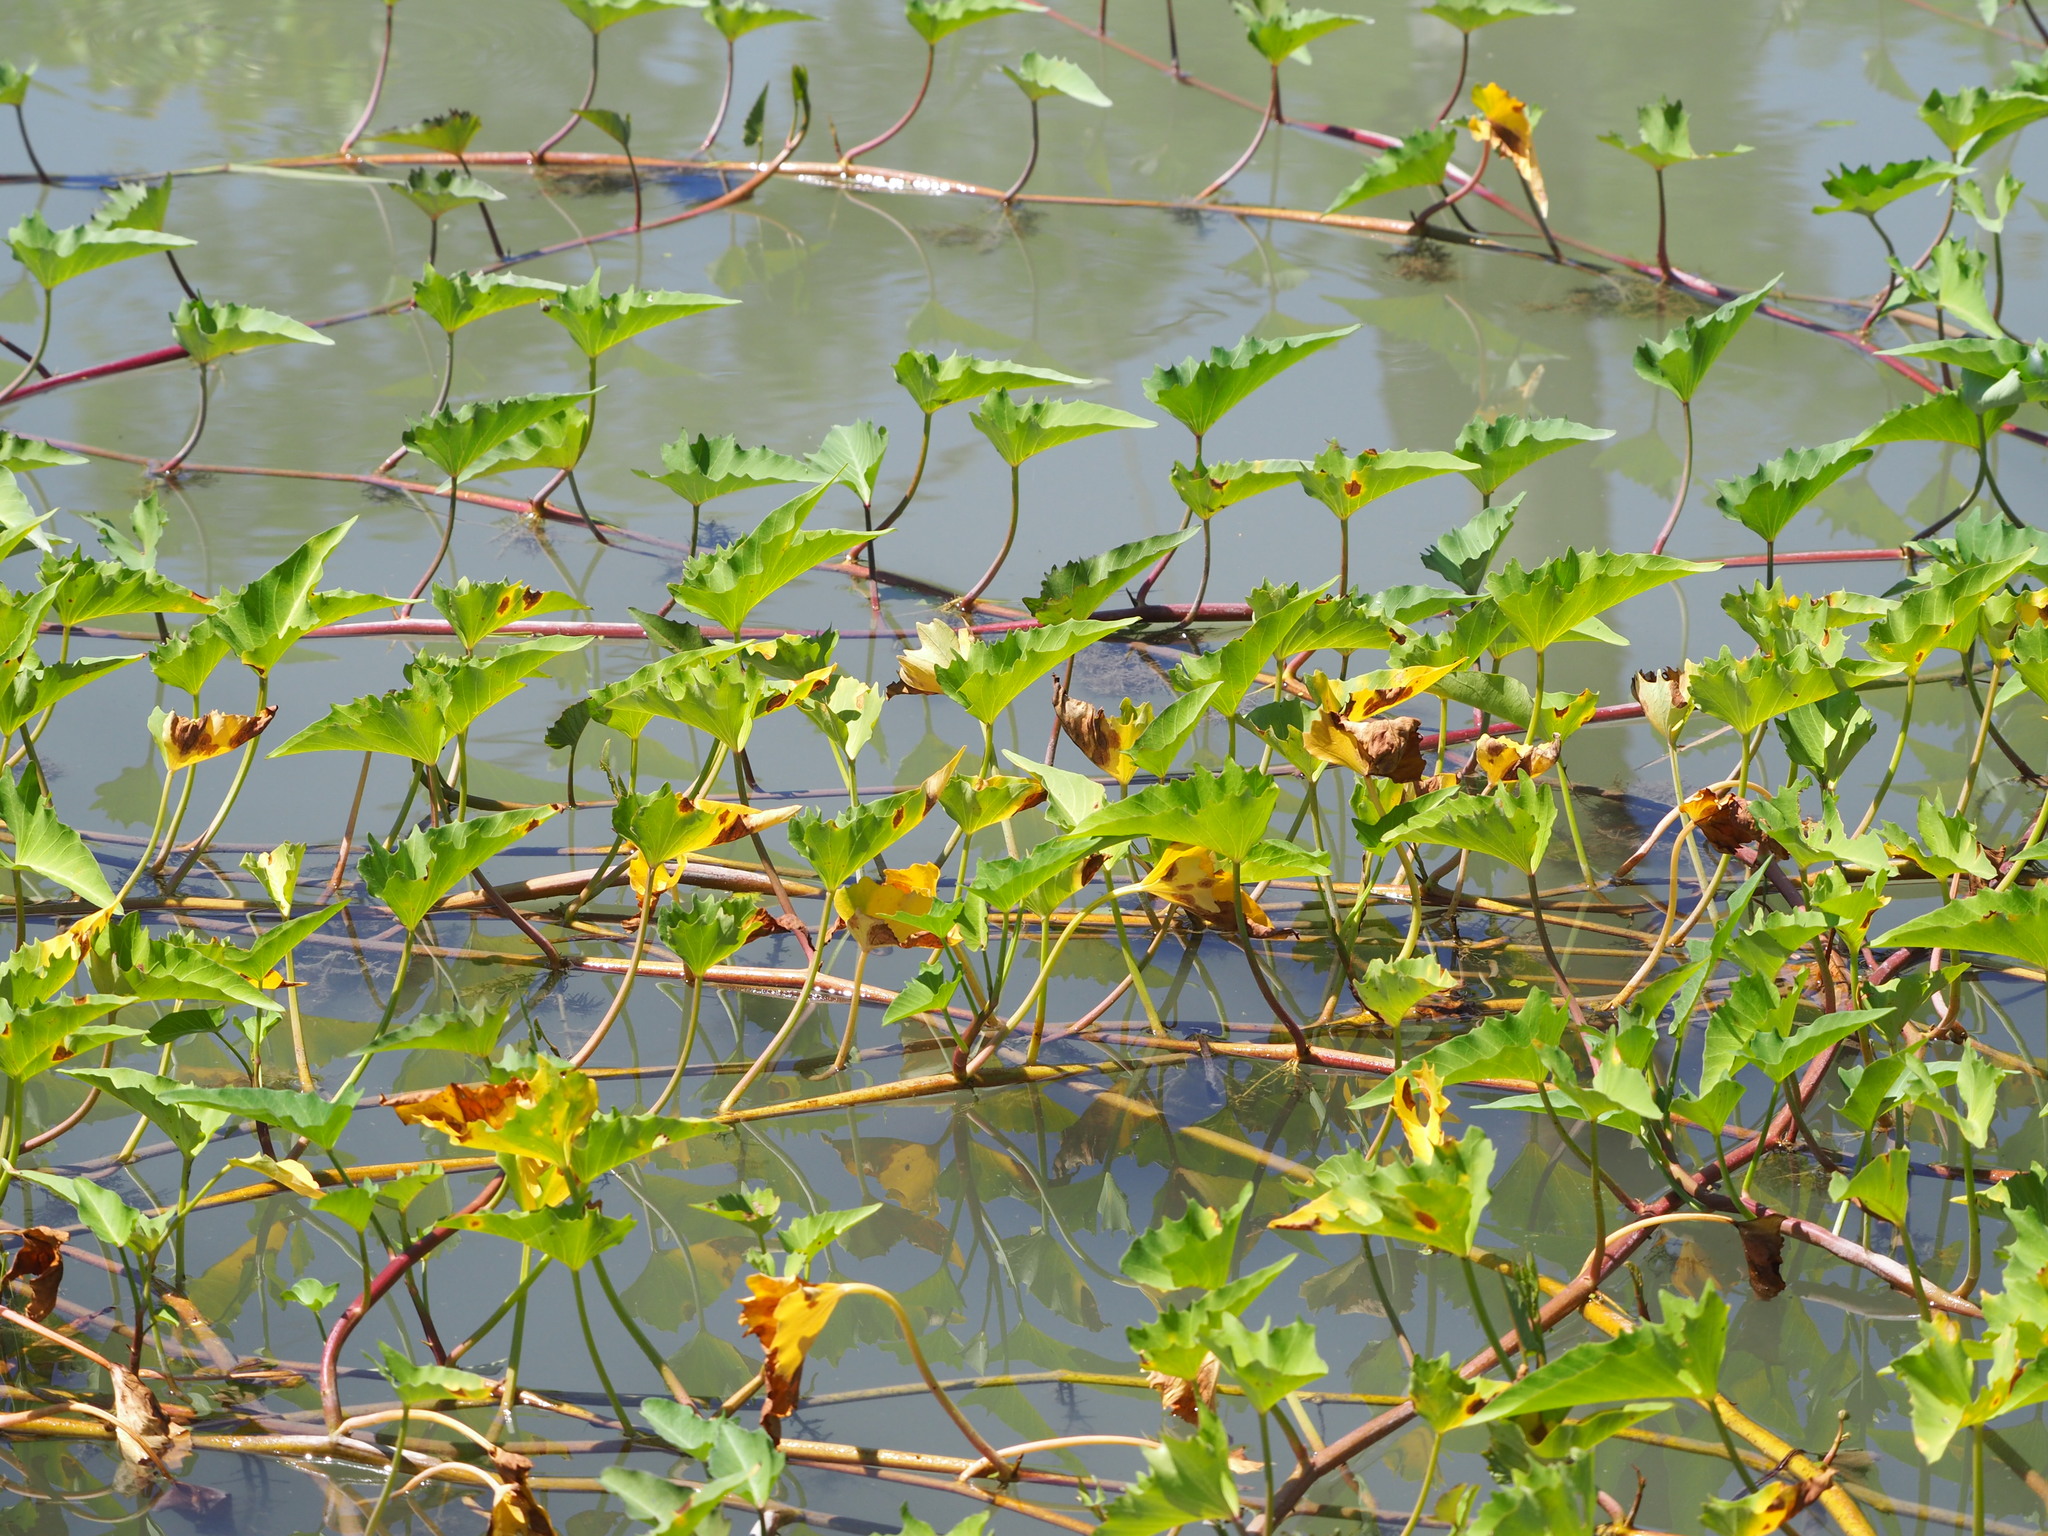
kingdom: Plantae
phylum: Tracheophyta
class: Magnoliopsida
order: Solanales
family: Convolvulaceae
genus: Ipomoea
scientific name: Ipomoea aquatica
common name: Swamp morning-glory
